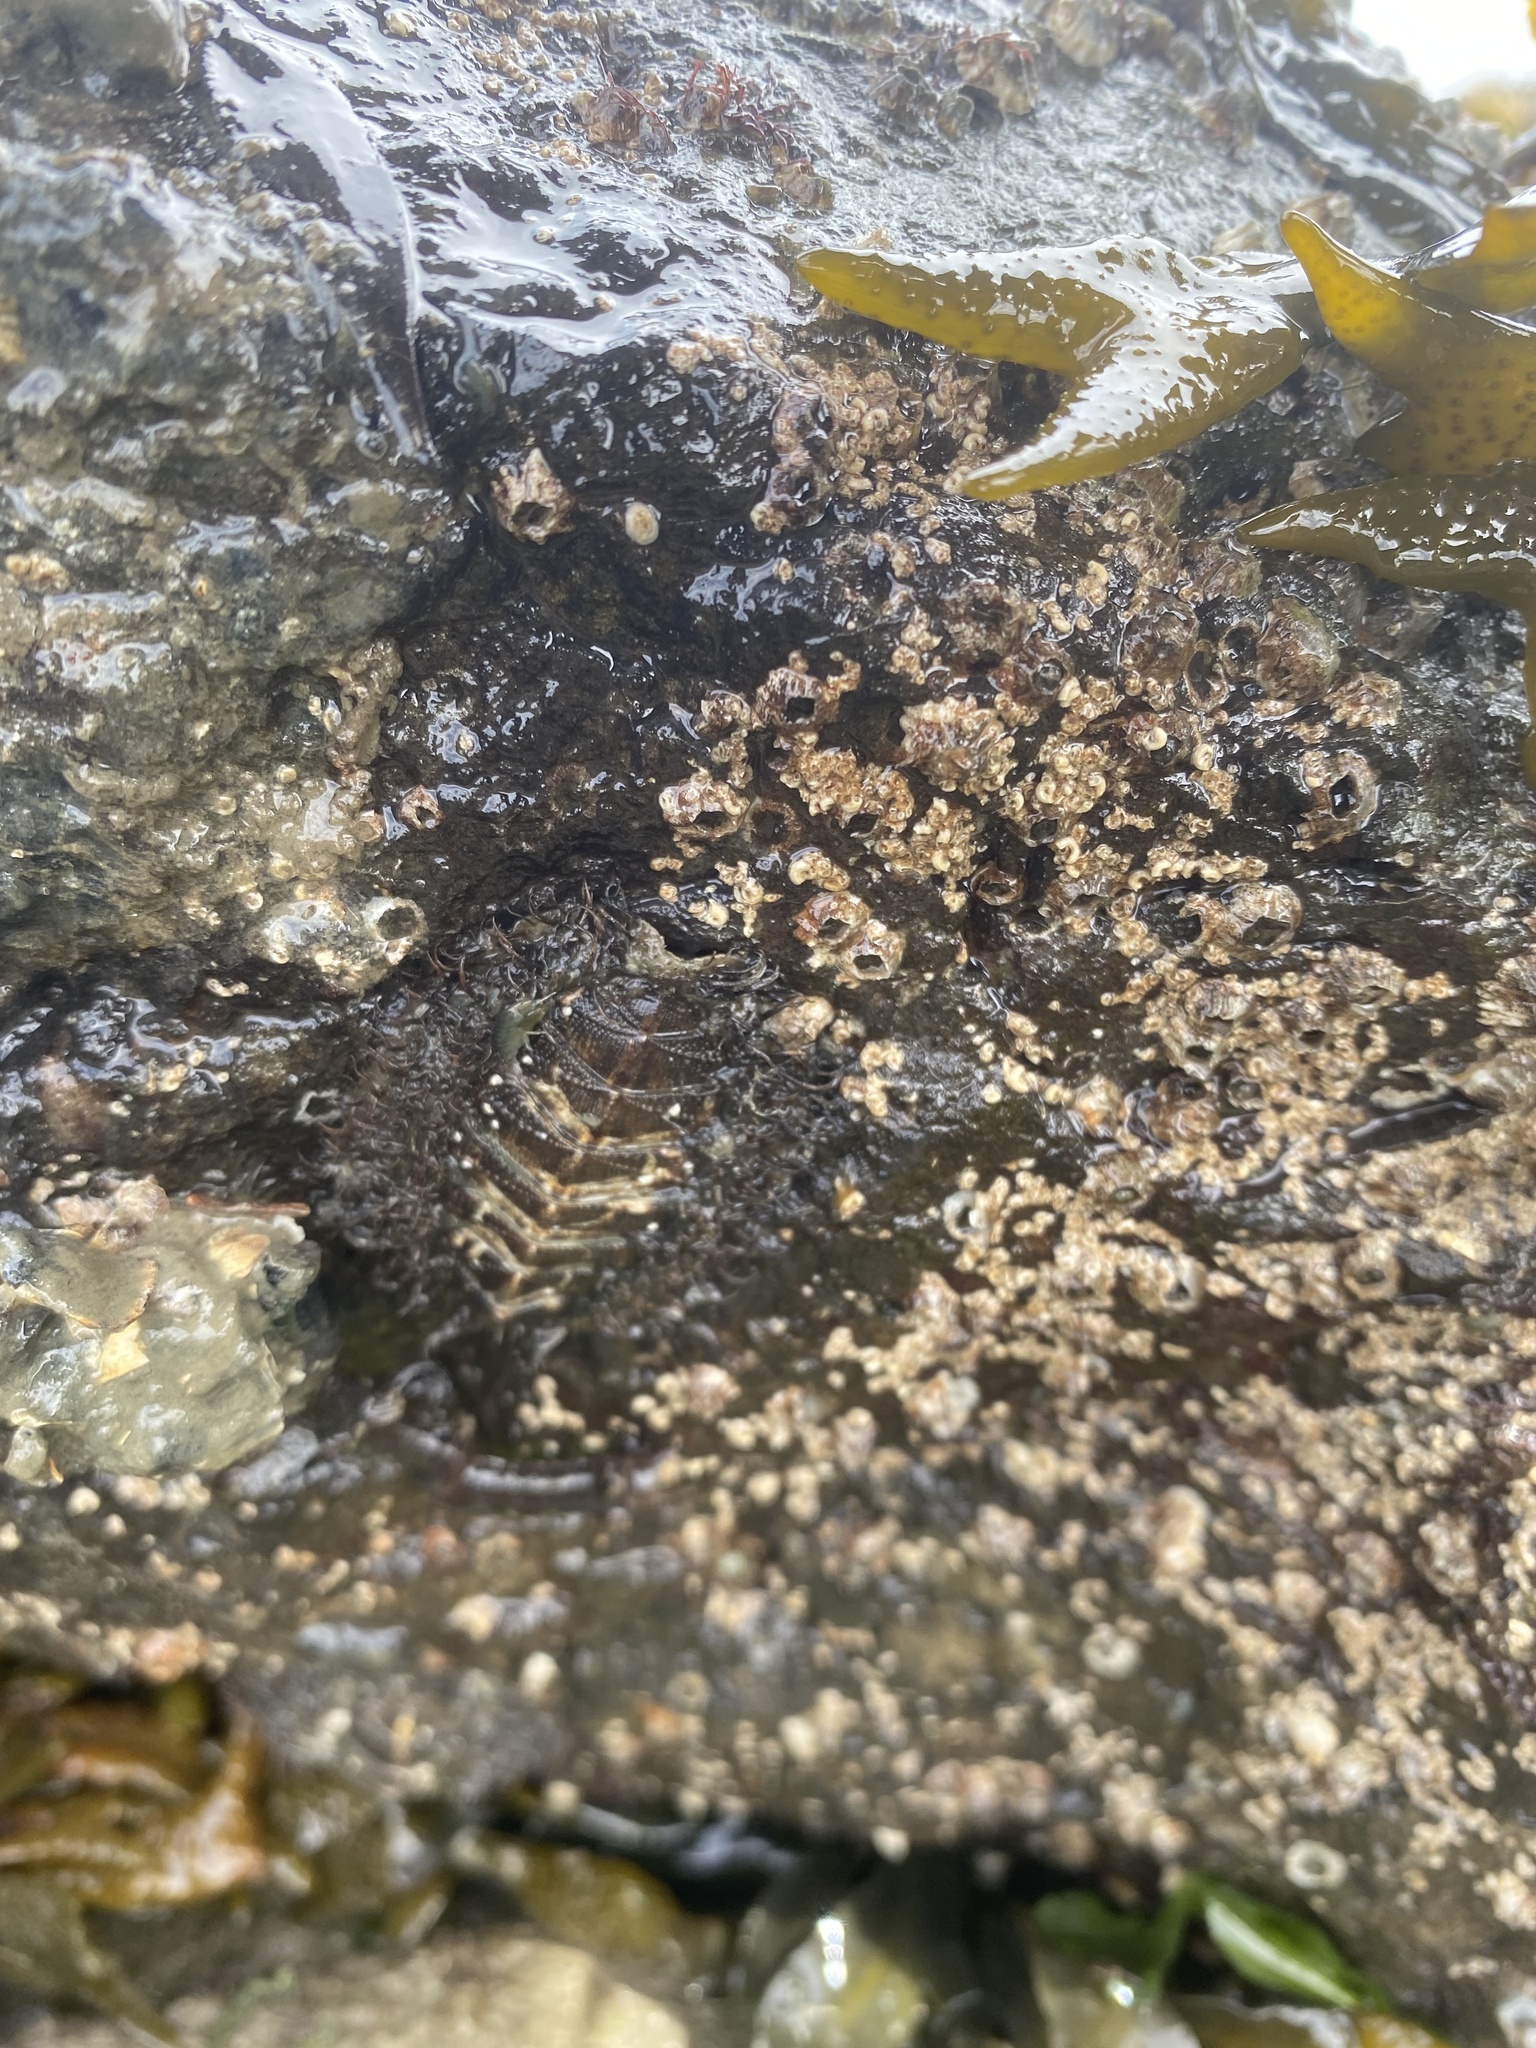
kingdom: Animalia
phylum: Mollusca
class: Polyplacophora
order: Chitonida
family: Mopaliidae
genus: Mopalia
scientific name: Mopalia muscosa
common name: Mossy chiton
